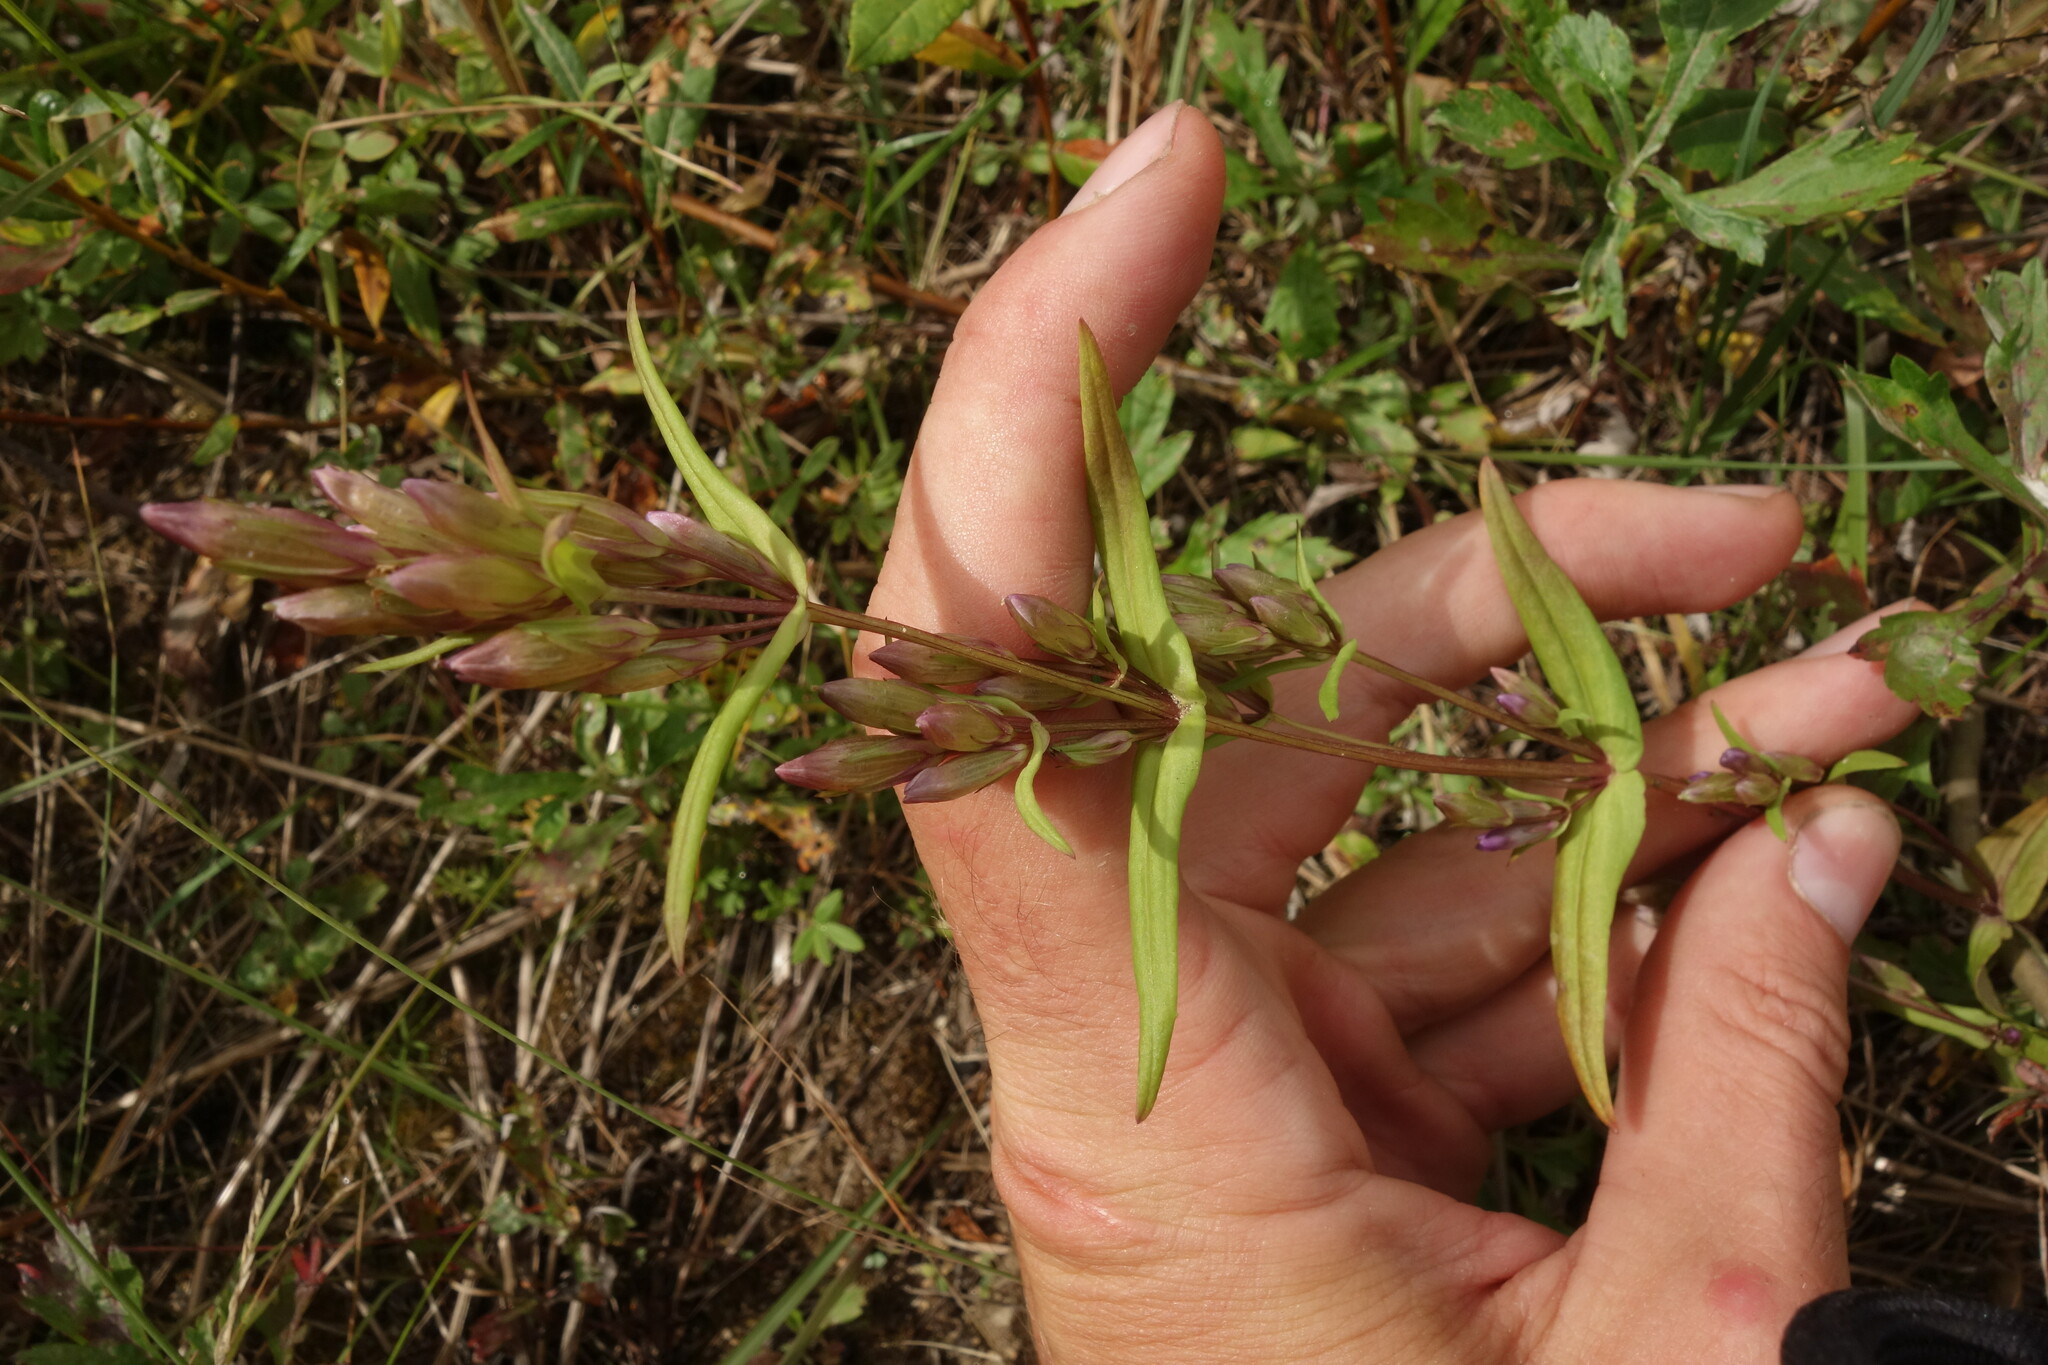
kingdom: Plantae
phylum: Tracheophyta
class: Magnoliopsida
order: Gentianales
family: Gentianaceae
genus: Gentianella
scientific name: Gentianella amarella
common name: Autumn gentian
